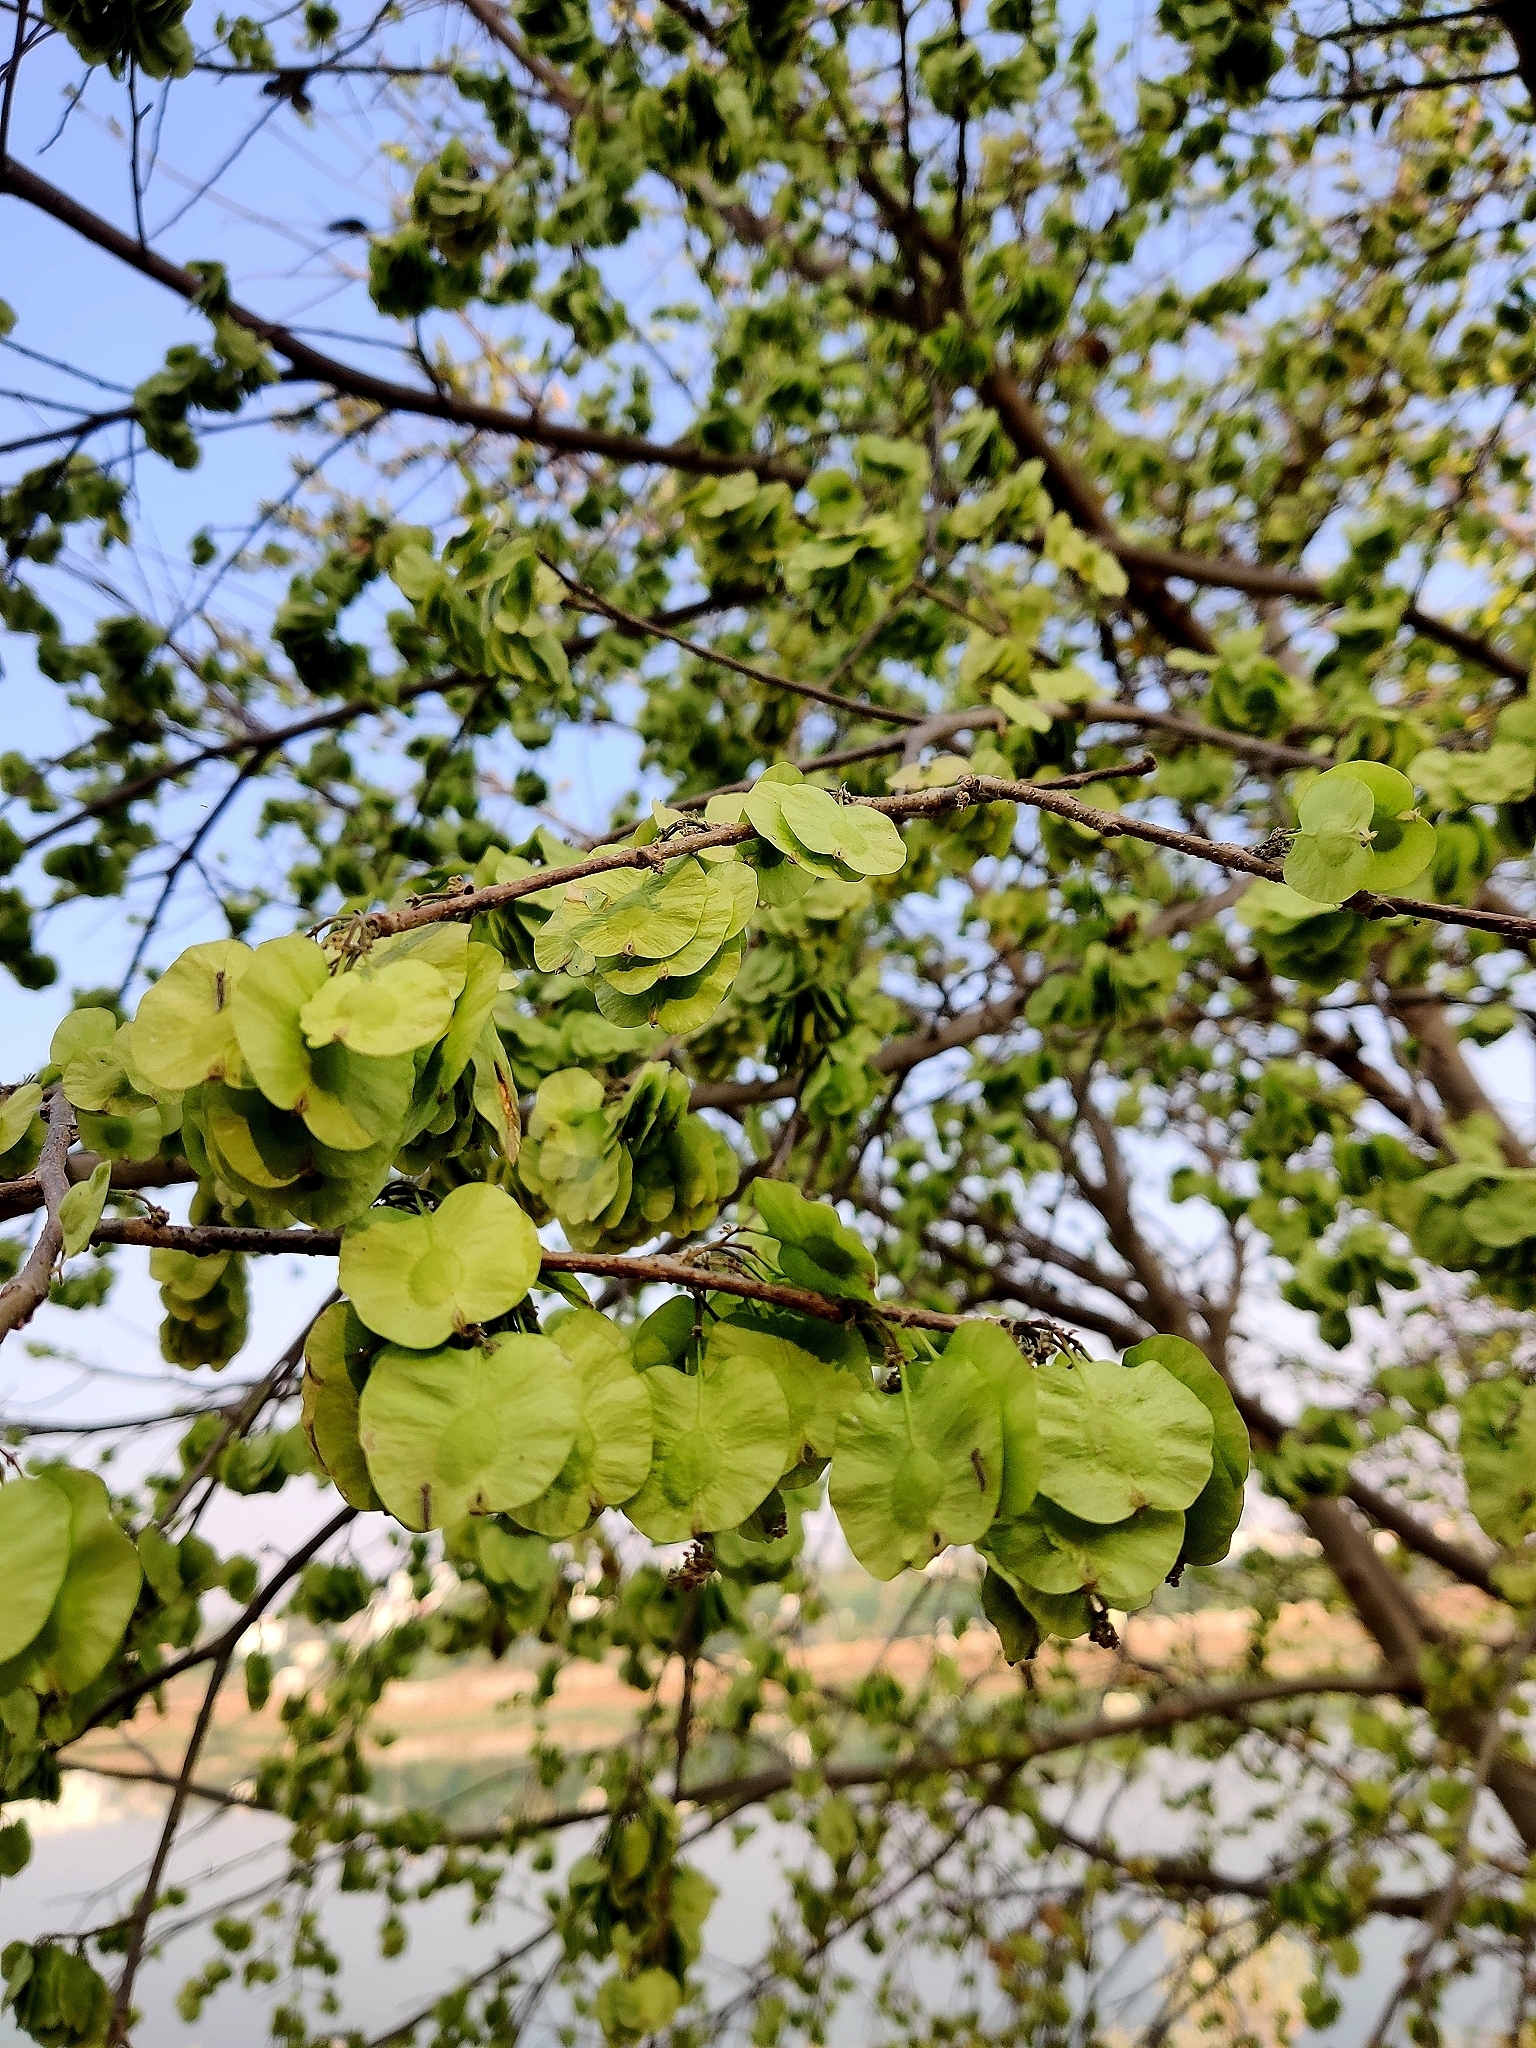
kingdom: Plantae
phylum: Tracheophyta
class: Magnoliopsida
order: Rosales
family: Ulmaceae
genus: Holoptelea
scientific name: Holoptelea integrifolia
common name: Indian-elm
